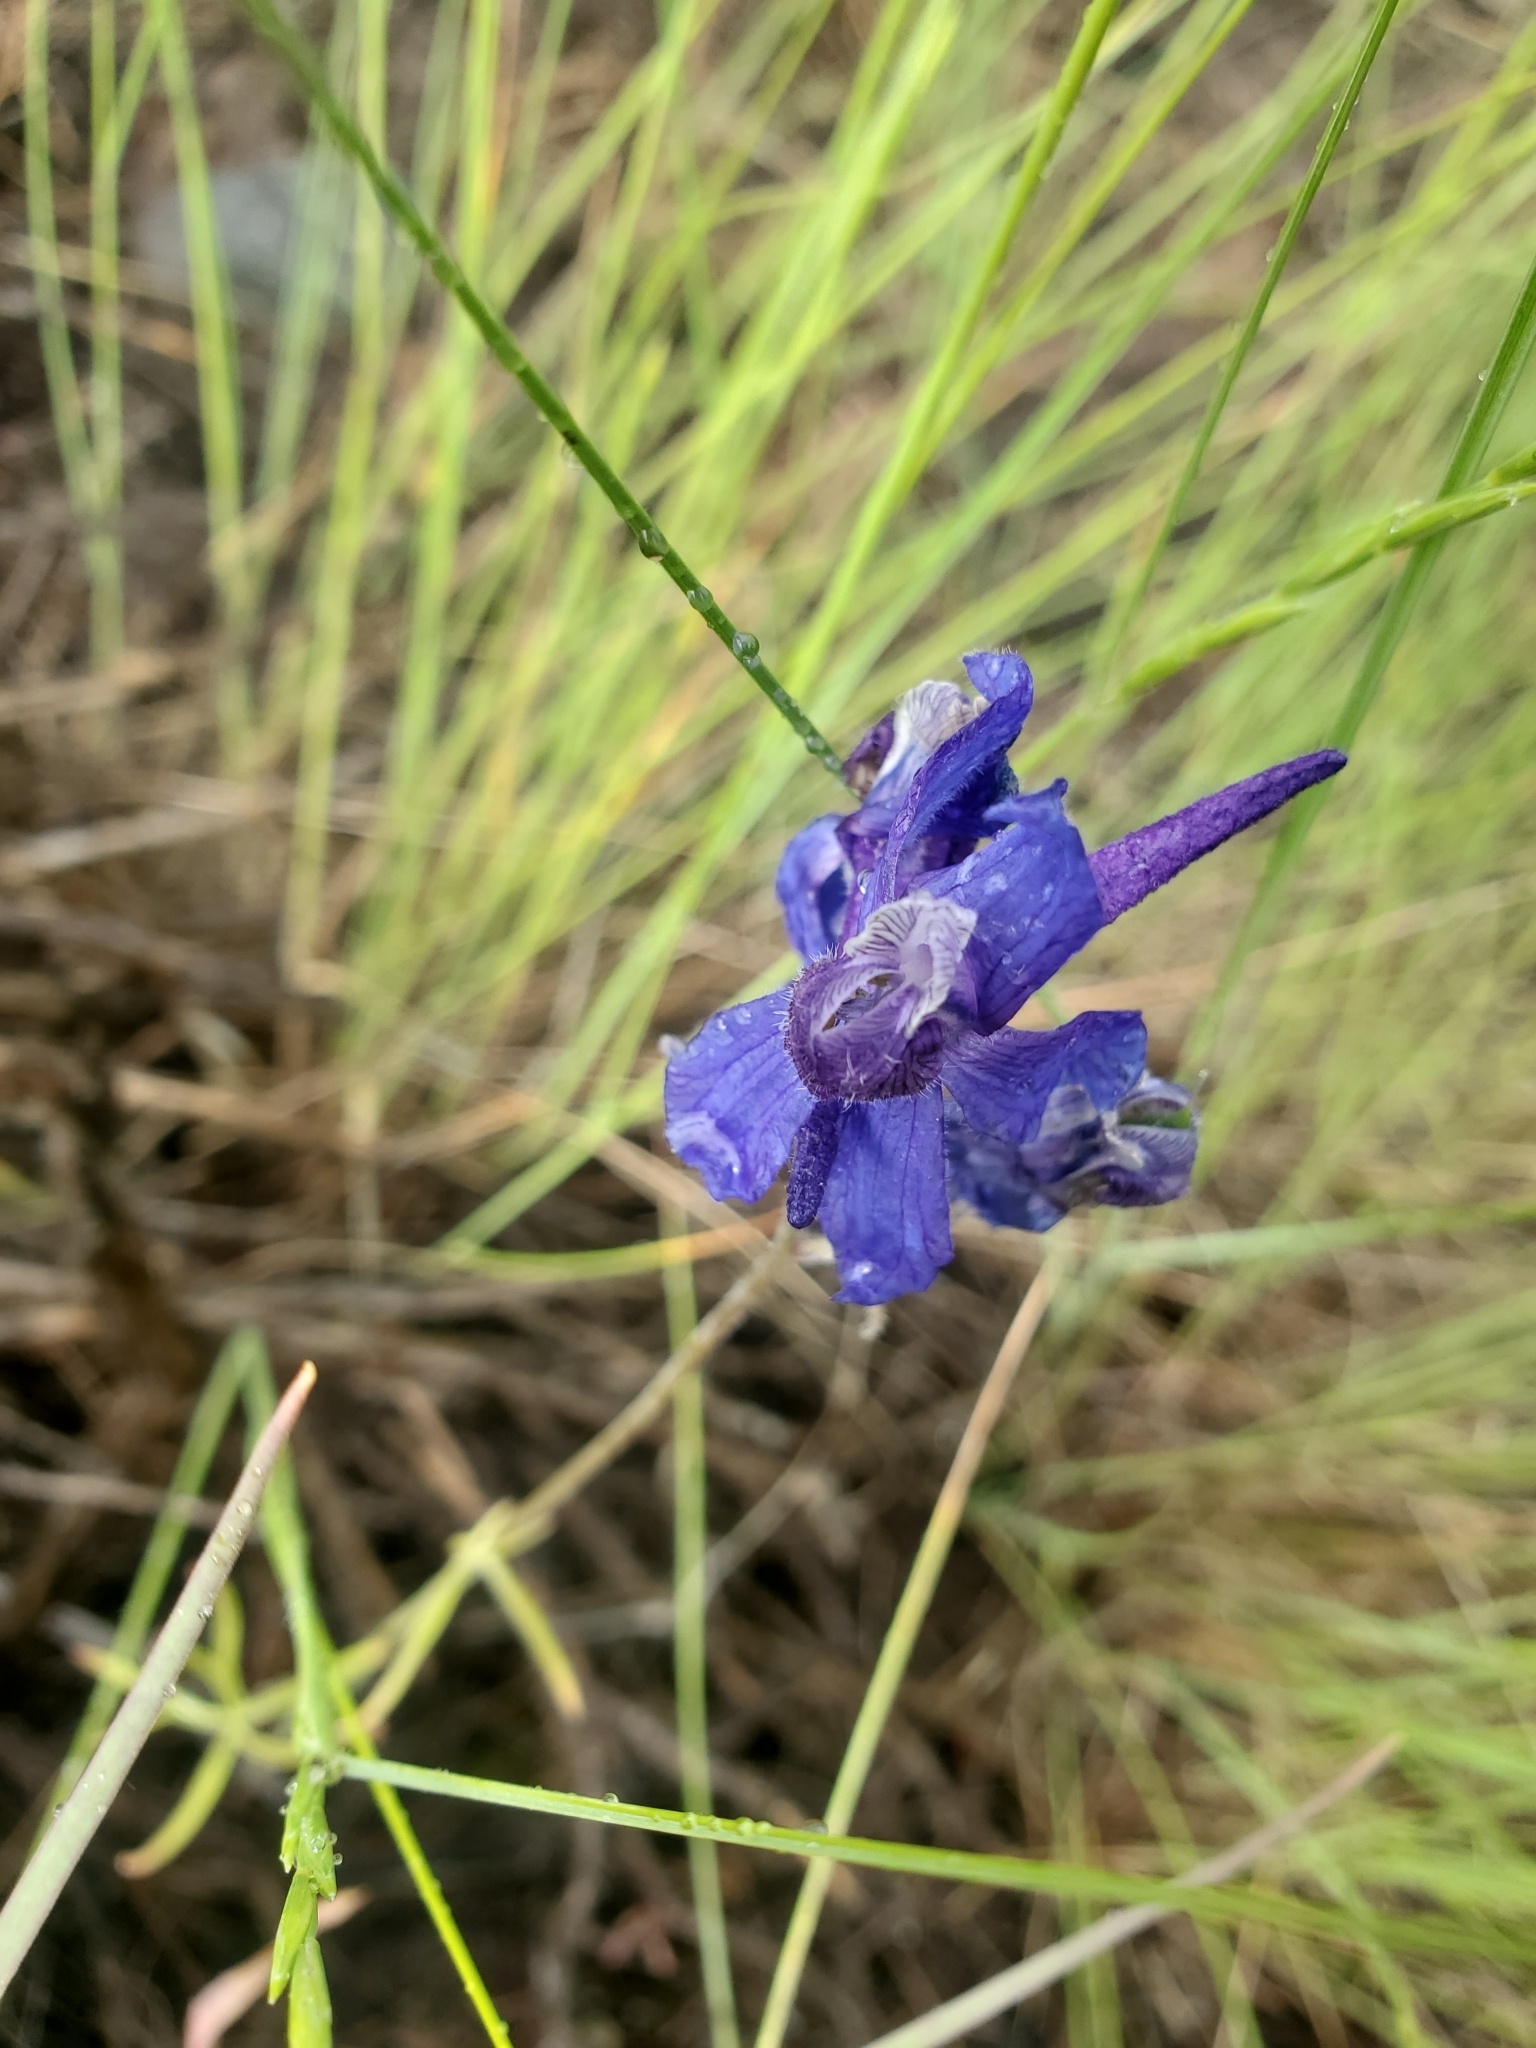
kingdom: Plantae
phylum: Tracheophyta
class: Magnoliopsida
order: Ranunculales
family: Ranunculaceae
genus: Delphinium
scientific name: Delphinium nuttallianum
